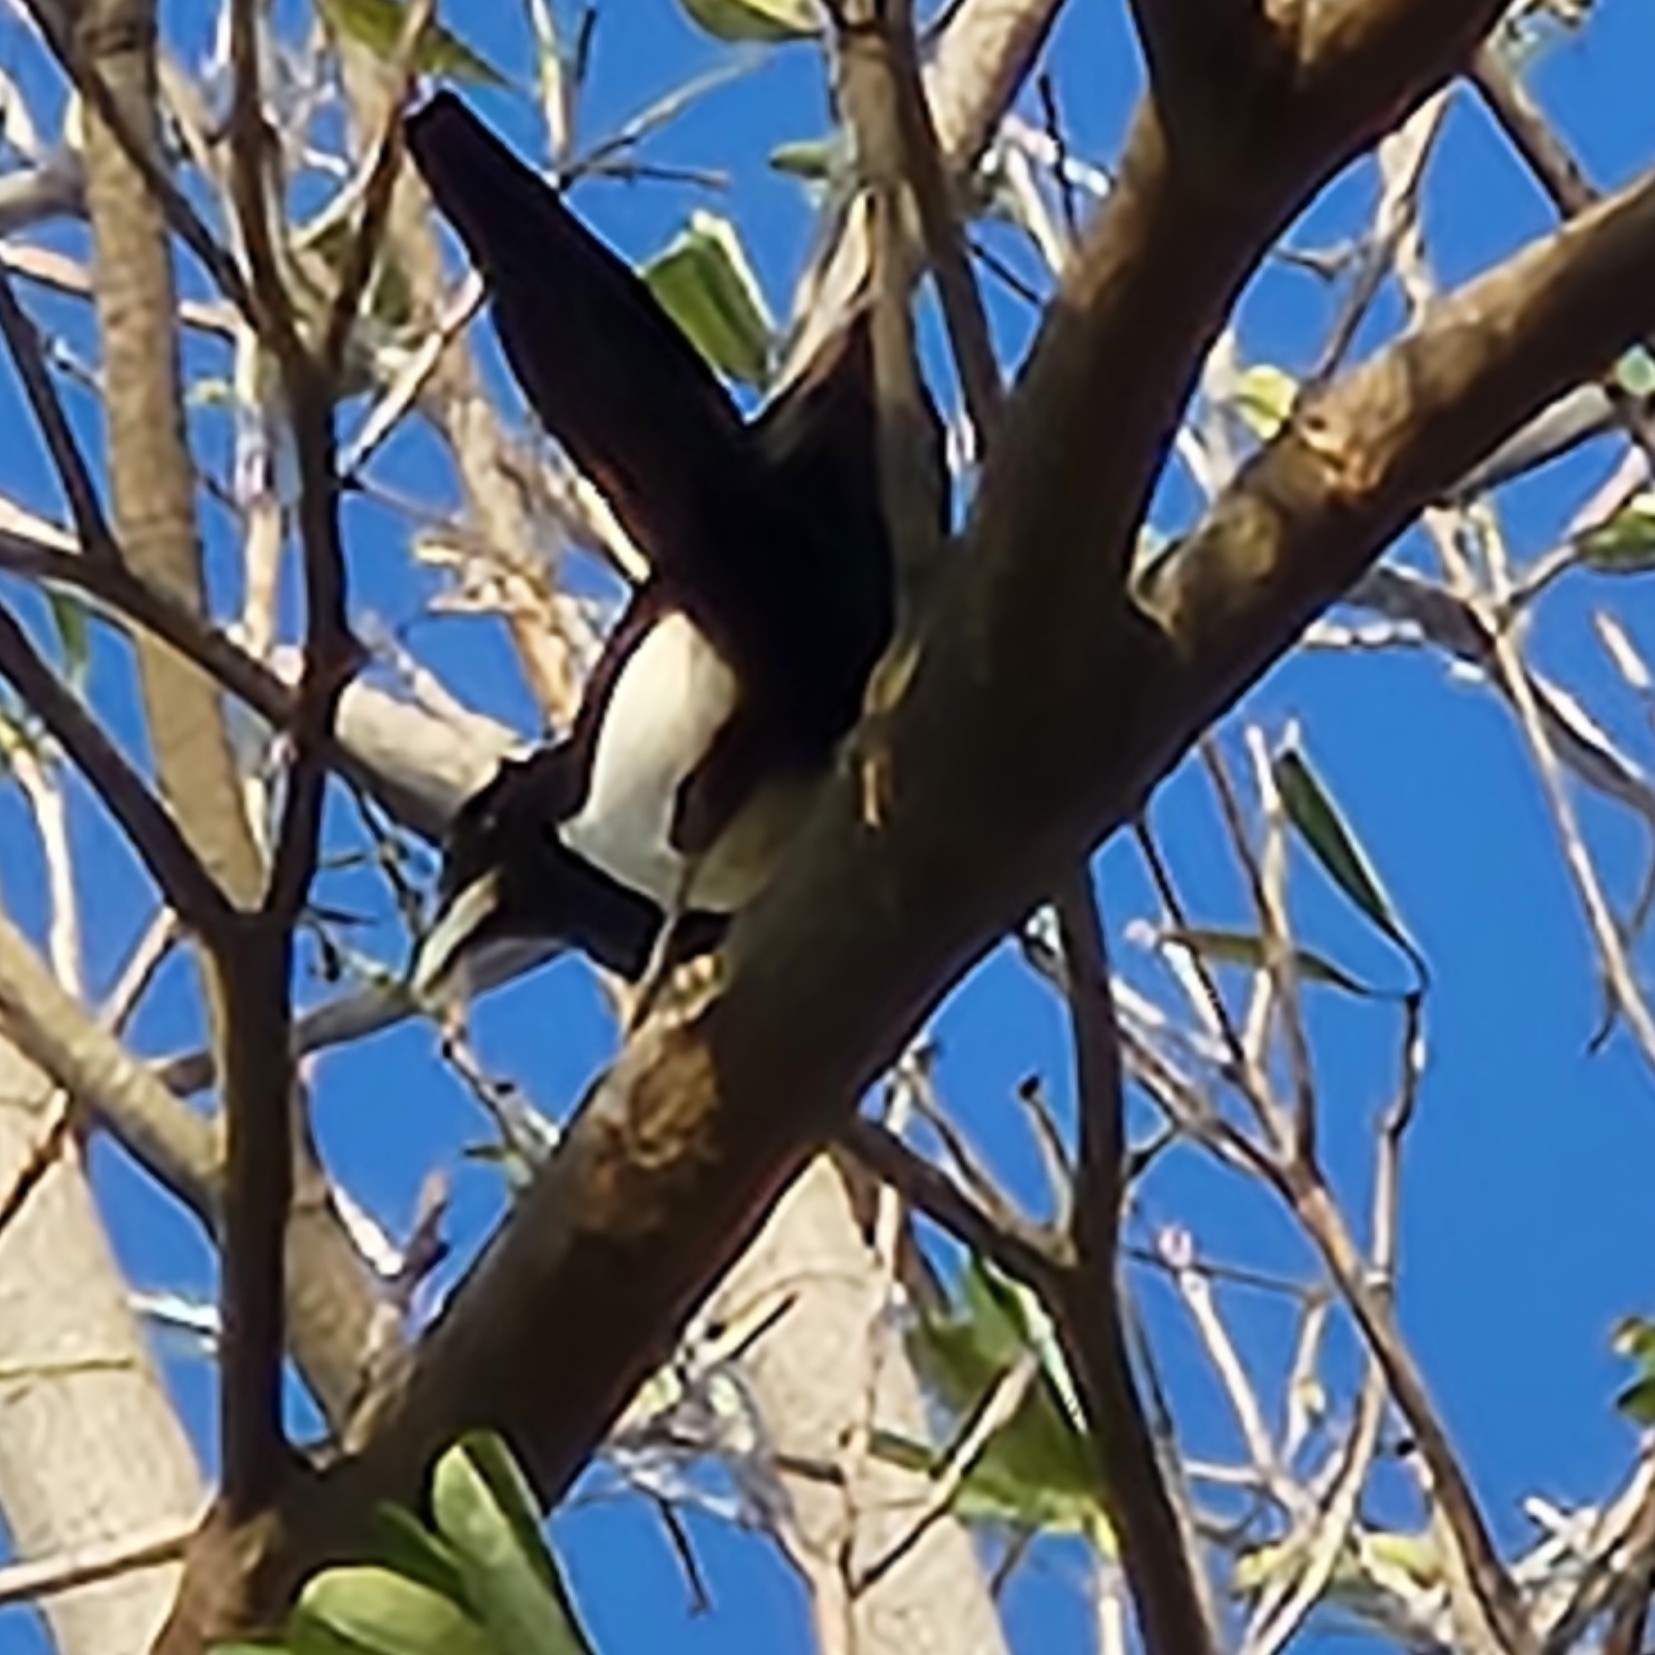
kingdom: Animalia
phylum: Chordata
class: Aves
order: Passeriformes
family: Corvidae
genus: Pica
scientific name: Pica serica
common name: Oriental magpie
